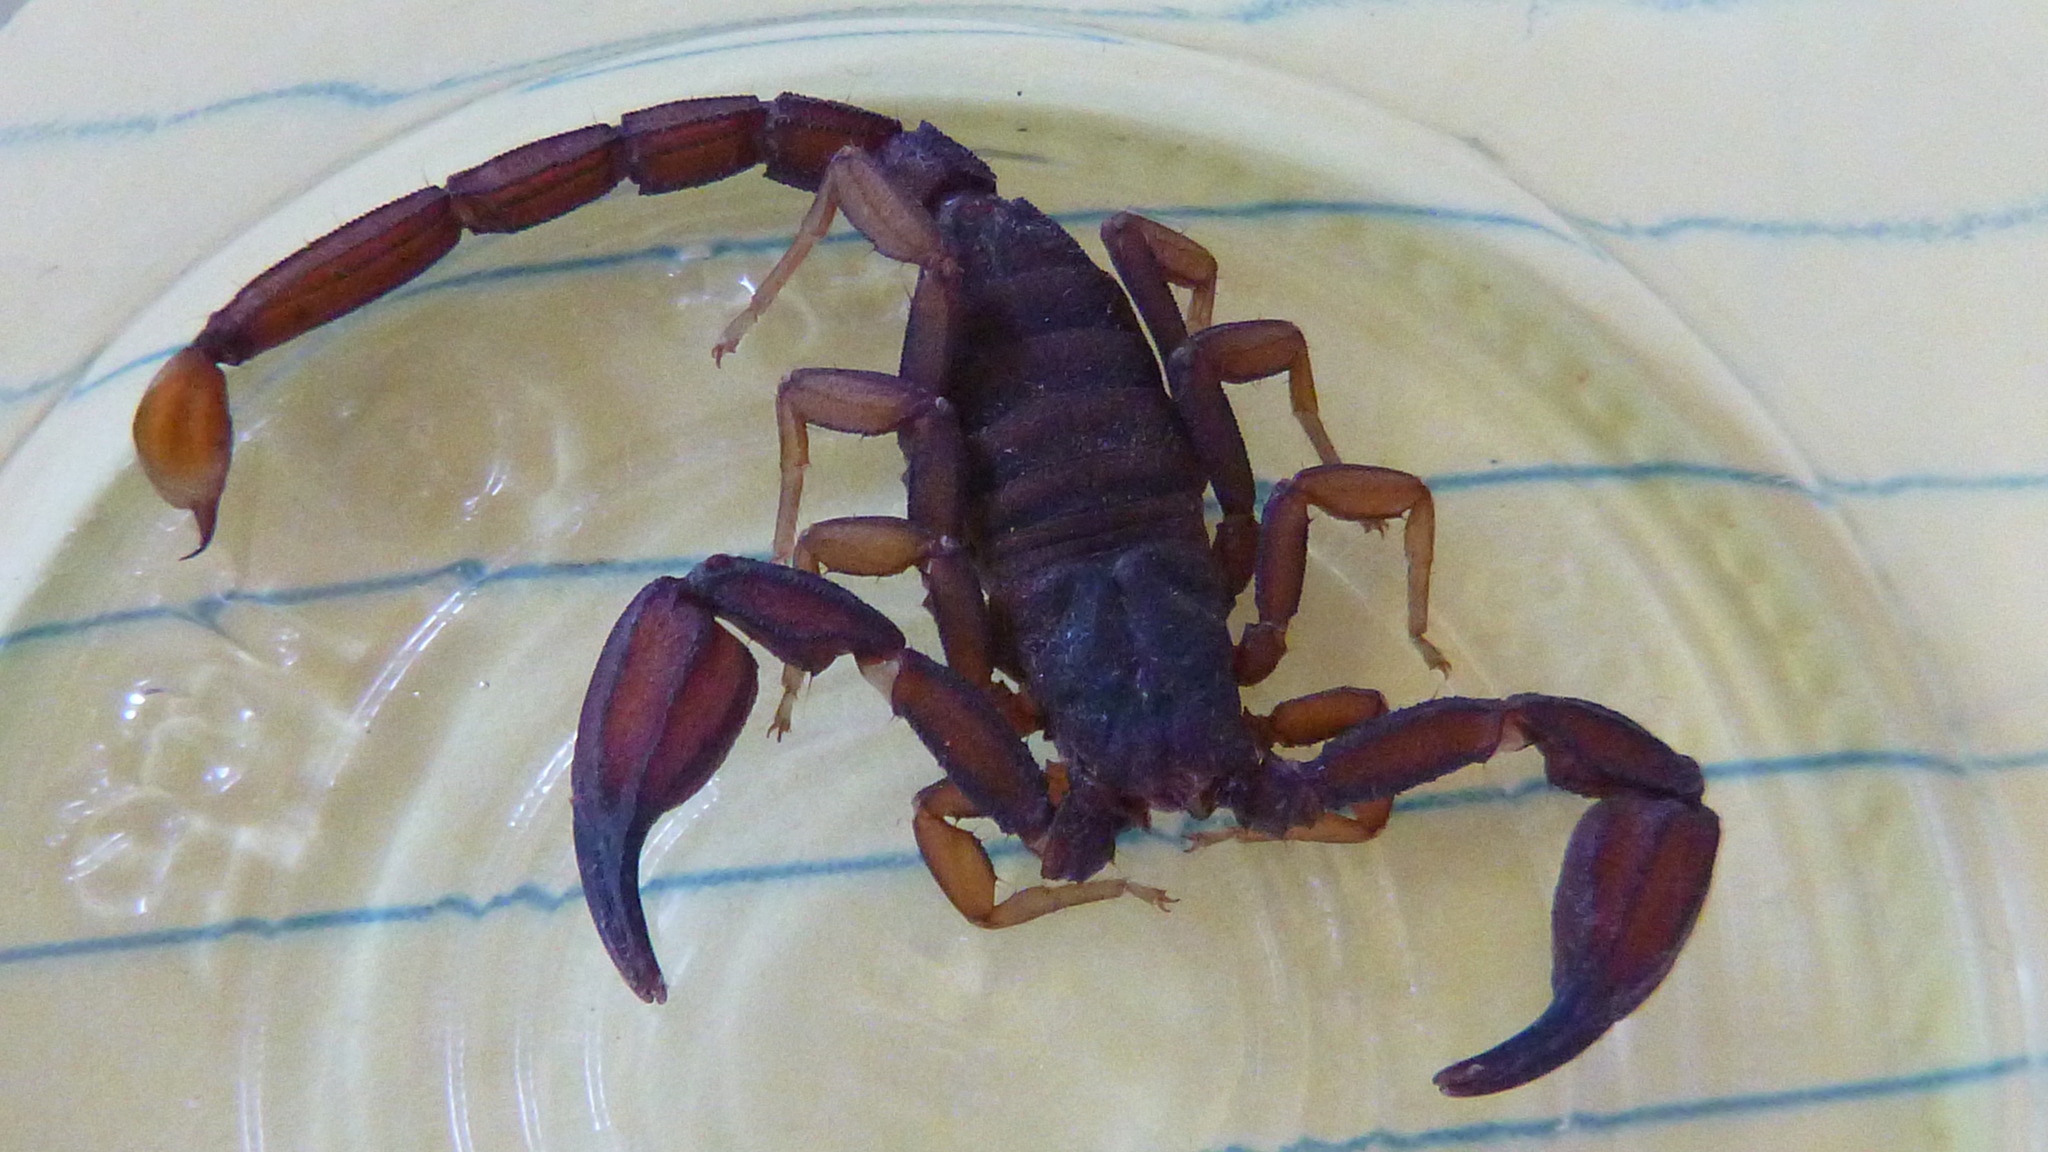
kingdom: Animalia
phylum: Arthropoda
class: Arachnida
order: Scorpiones
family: Vaejovidae
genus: Kovarikia
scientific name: Kovarikia angelena
